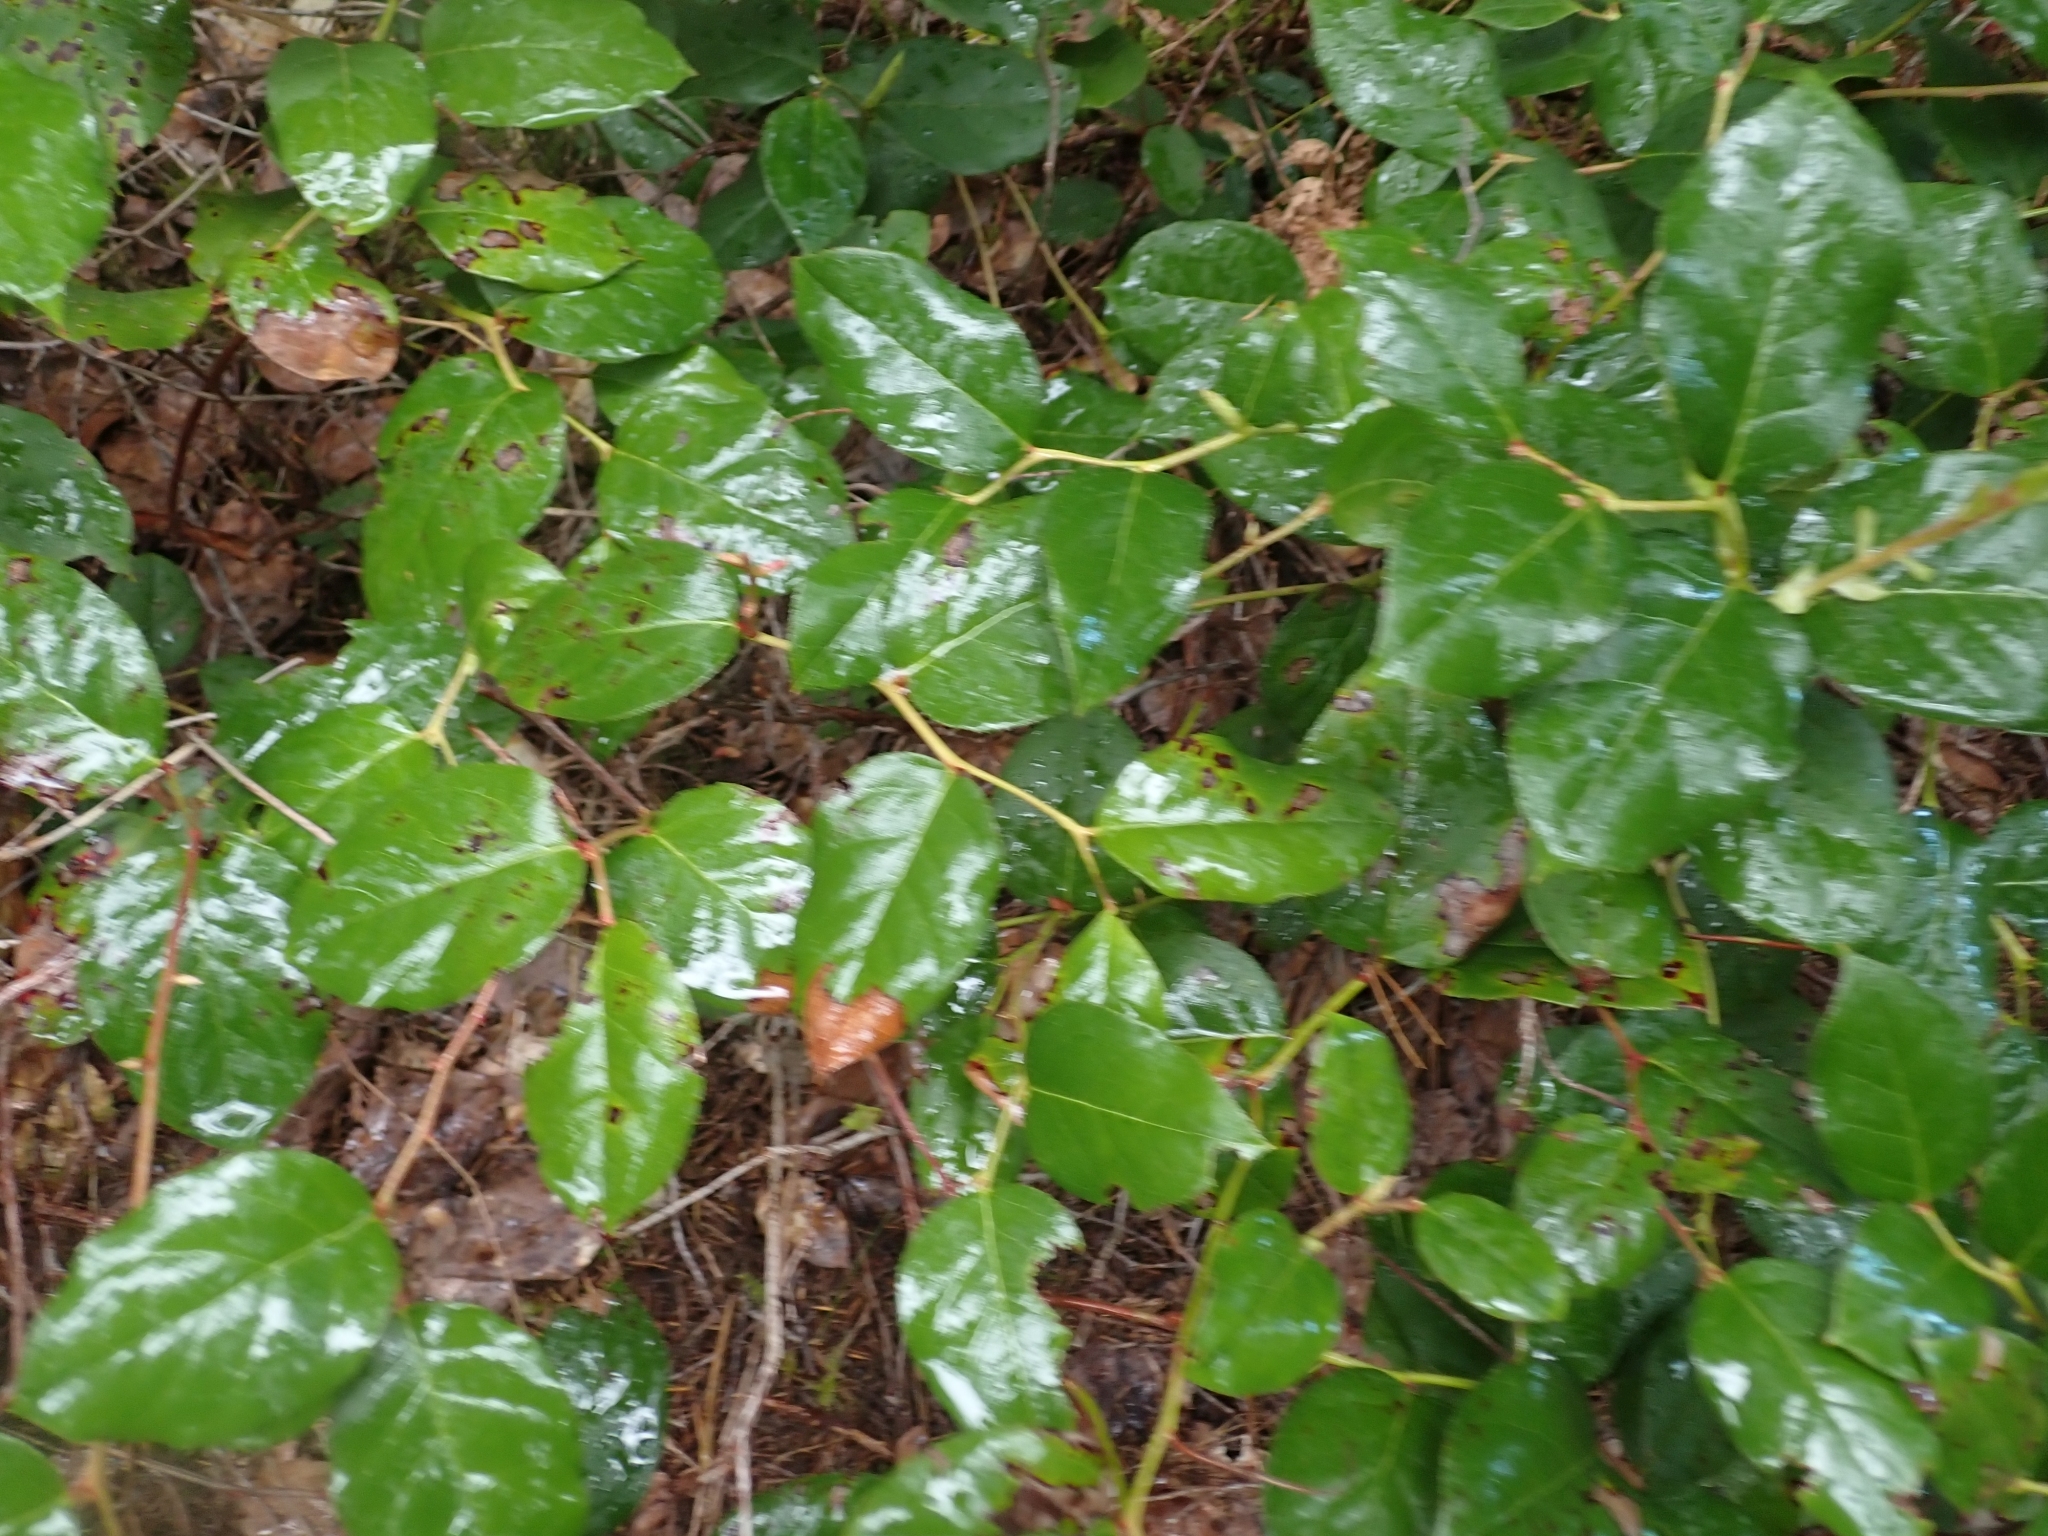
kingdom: Plantae
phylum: Tracheophyta
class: Magnoliopsida
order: Ericales
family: Ericaceae
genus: Gaultheria
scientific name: Gaultheria shallon
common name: Shallon
